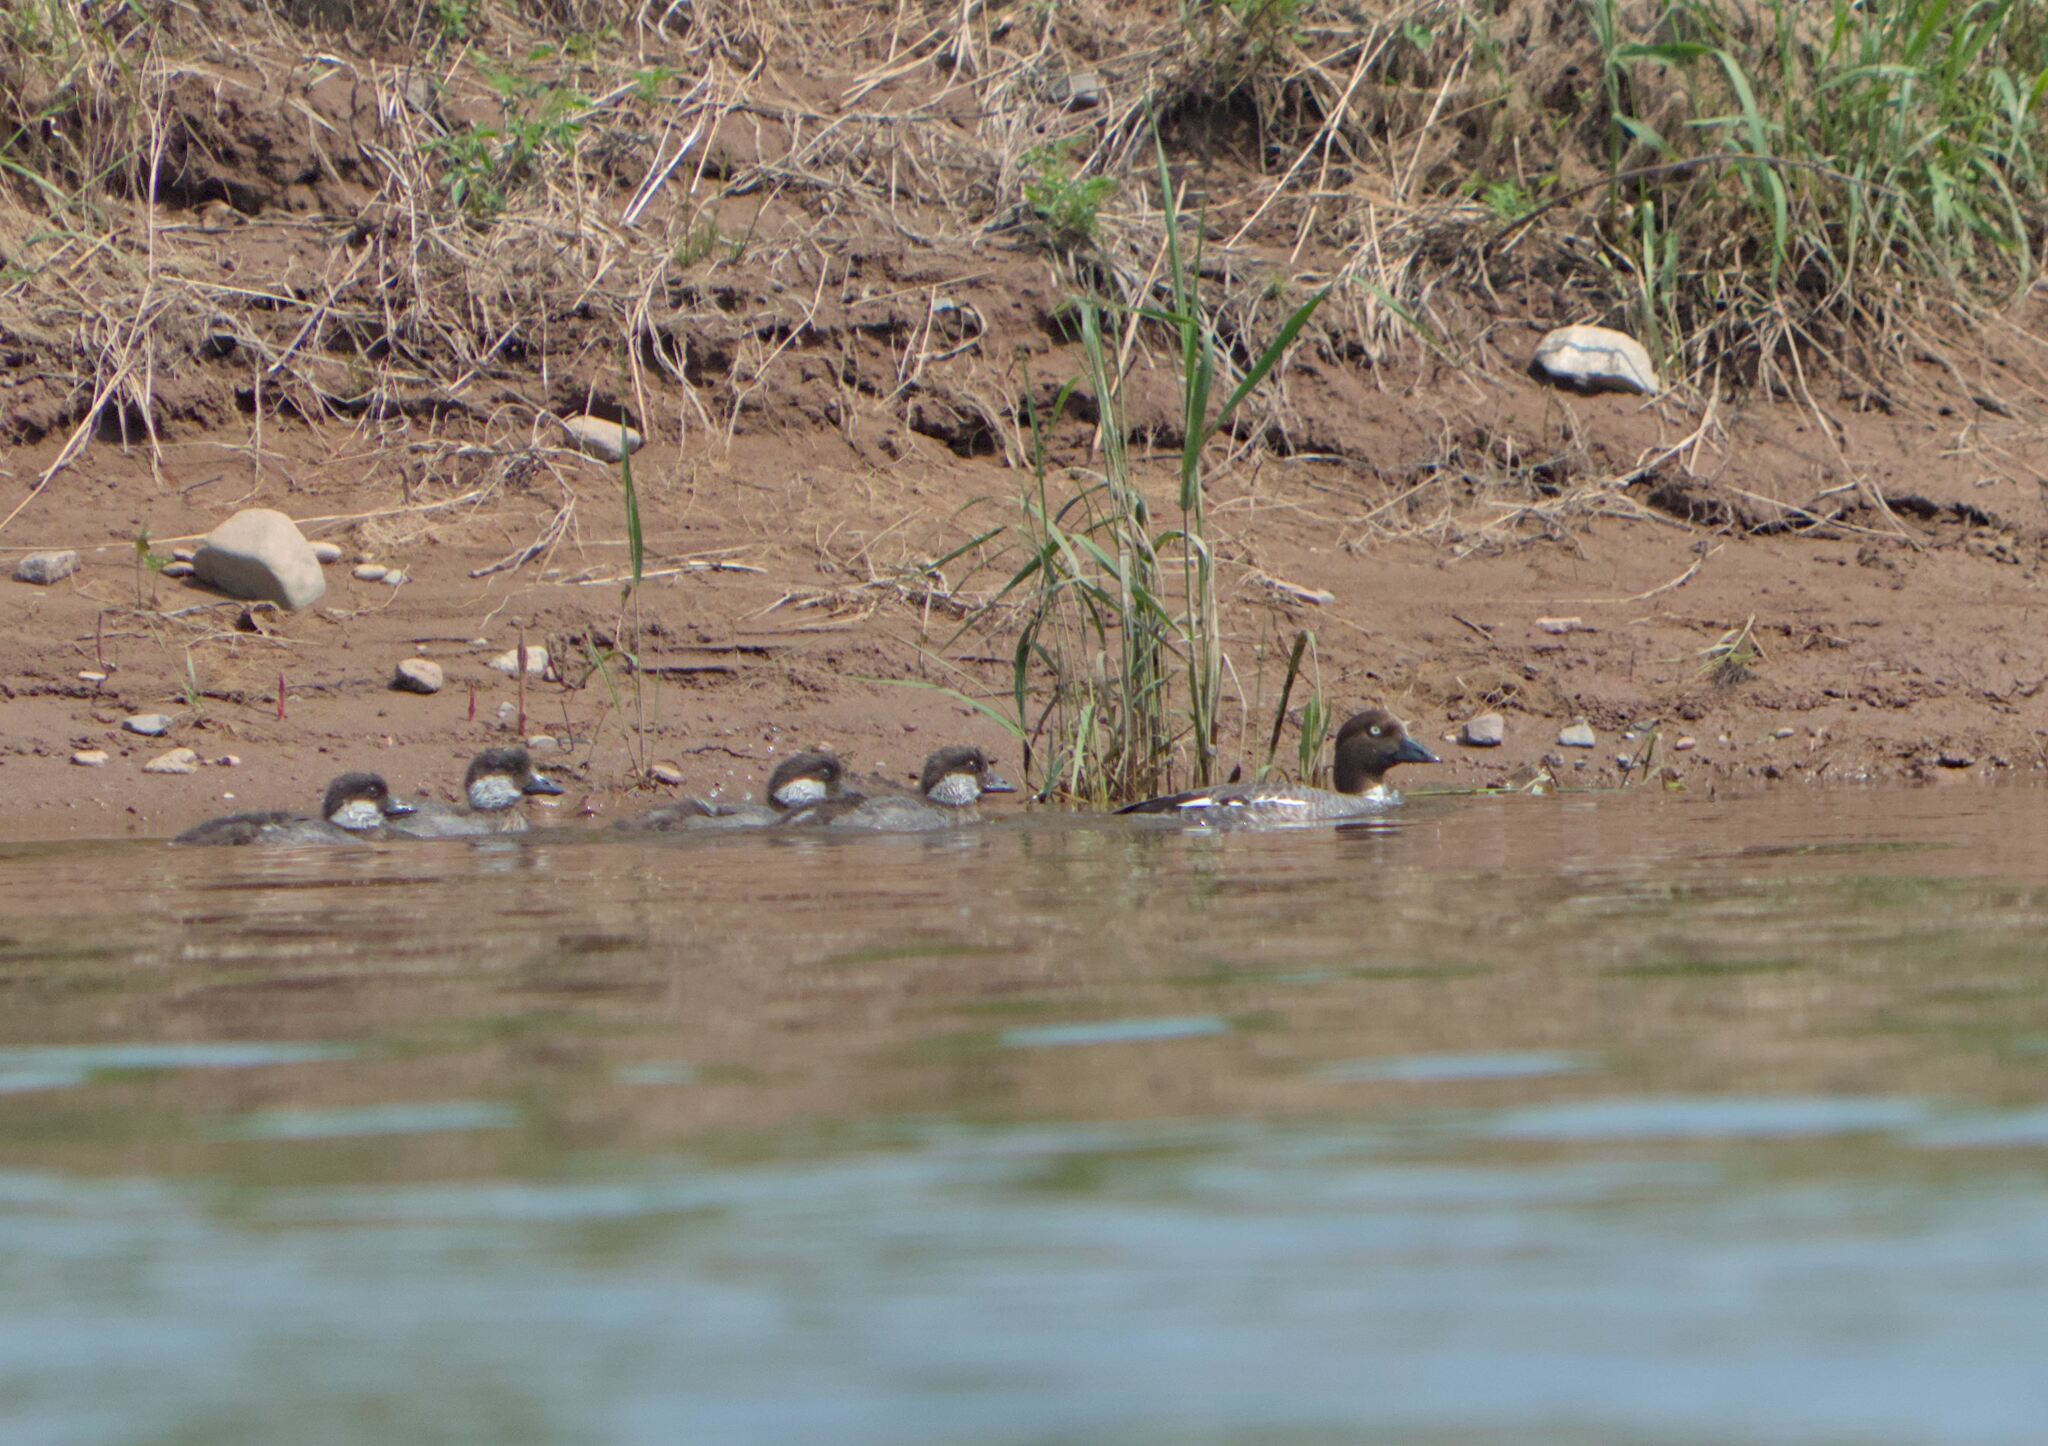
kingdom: Animalia
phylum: Chordata
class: Aves
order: Anseriformes
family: Anatidae
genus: Bucephala
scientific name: Bucephala clangula
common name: Common goldeneye
